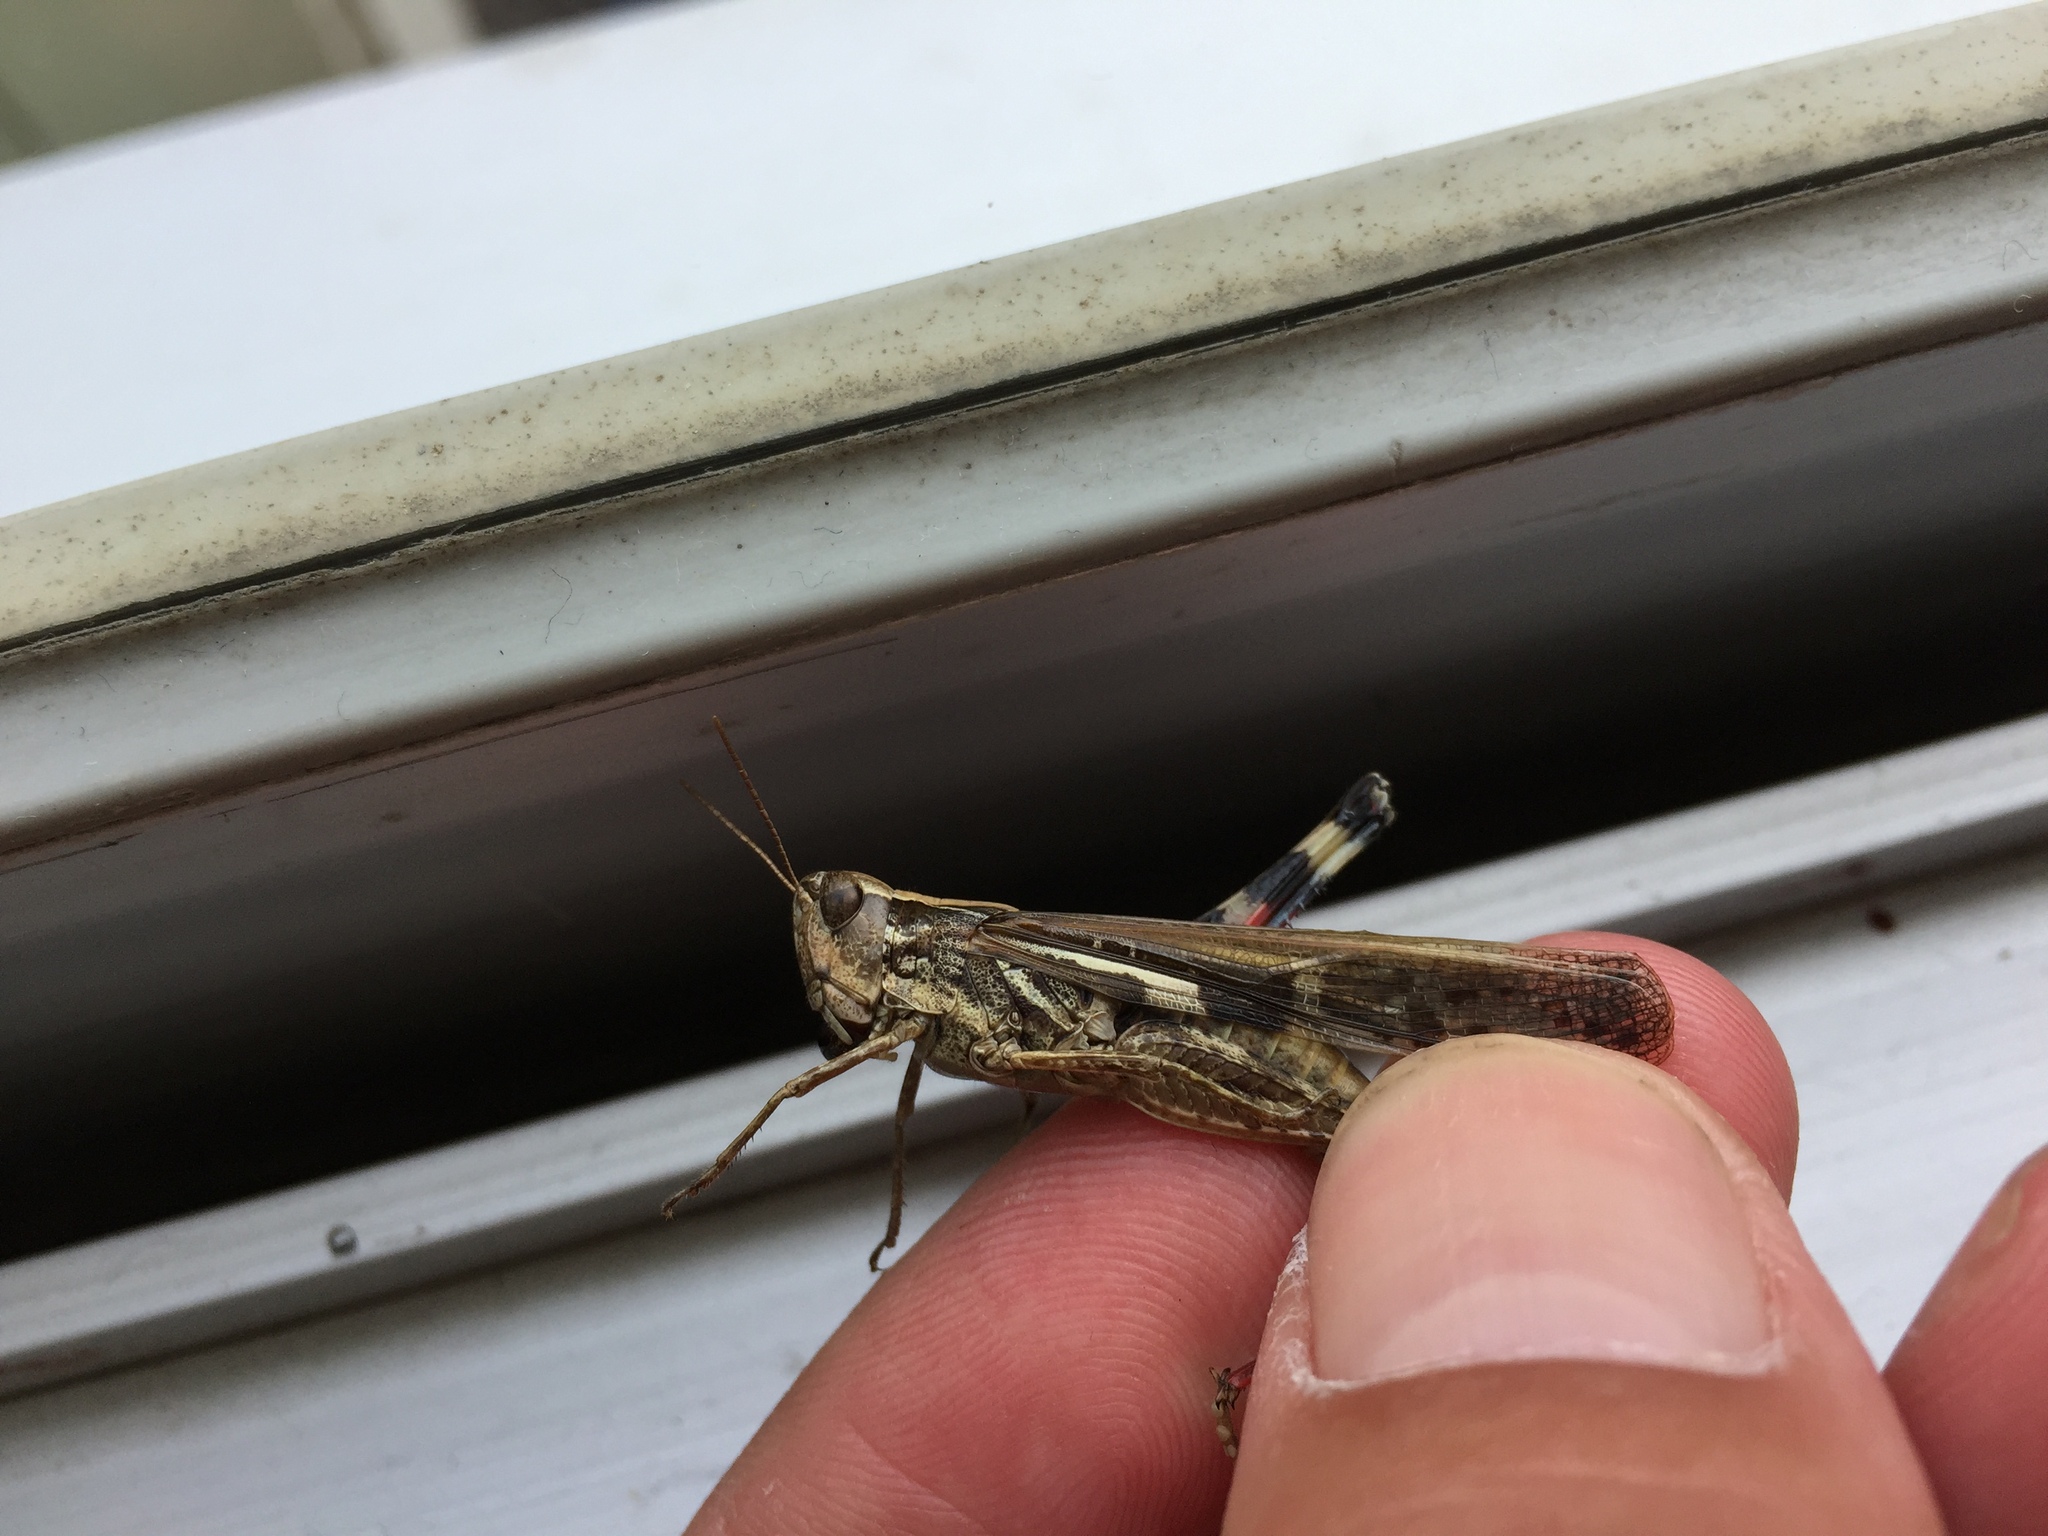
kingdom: Animalia
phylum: Arthropoda
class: Insecta
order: Orthoptera
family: Acrididae
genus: Aiolopus
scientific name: Aiolopus thalassinus
